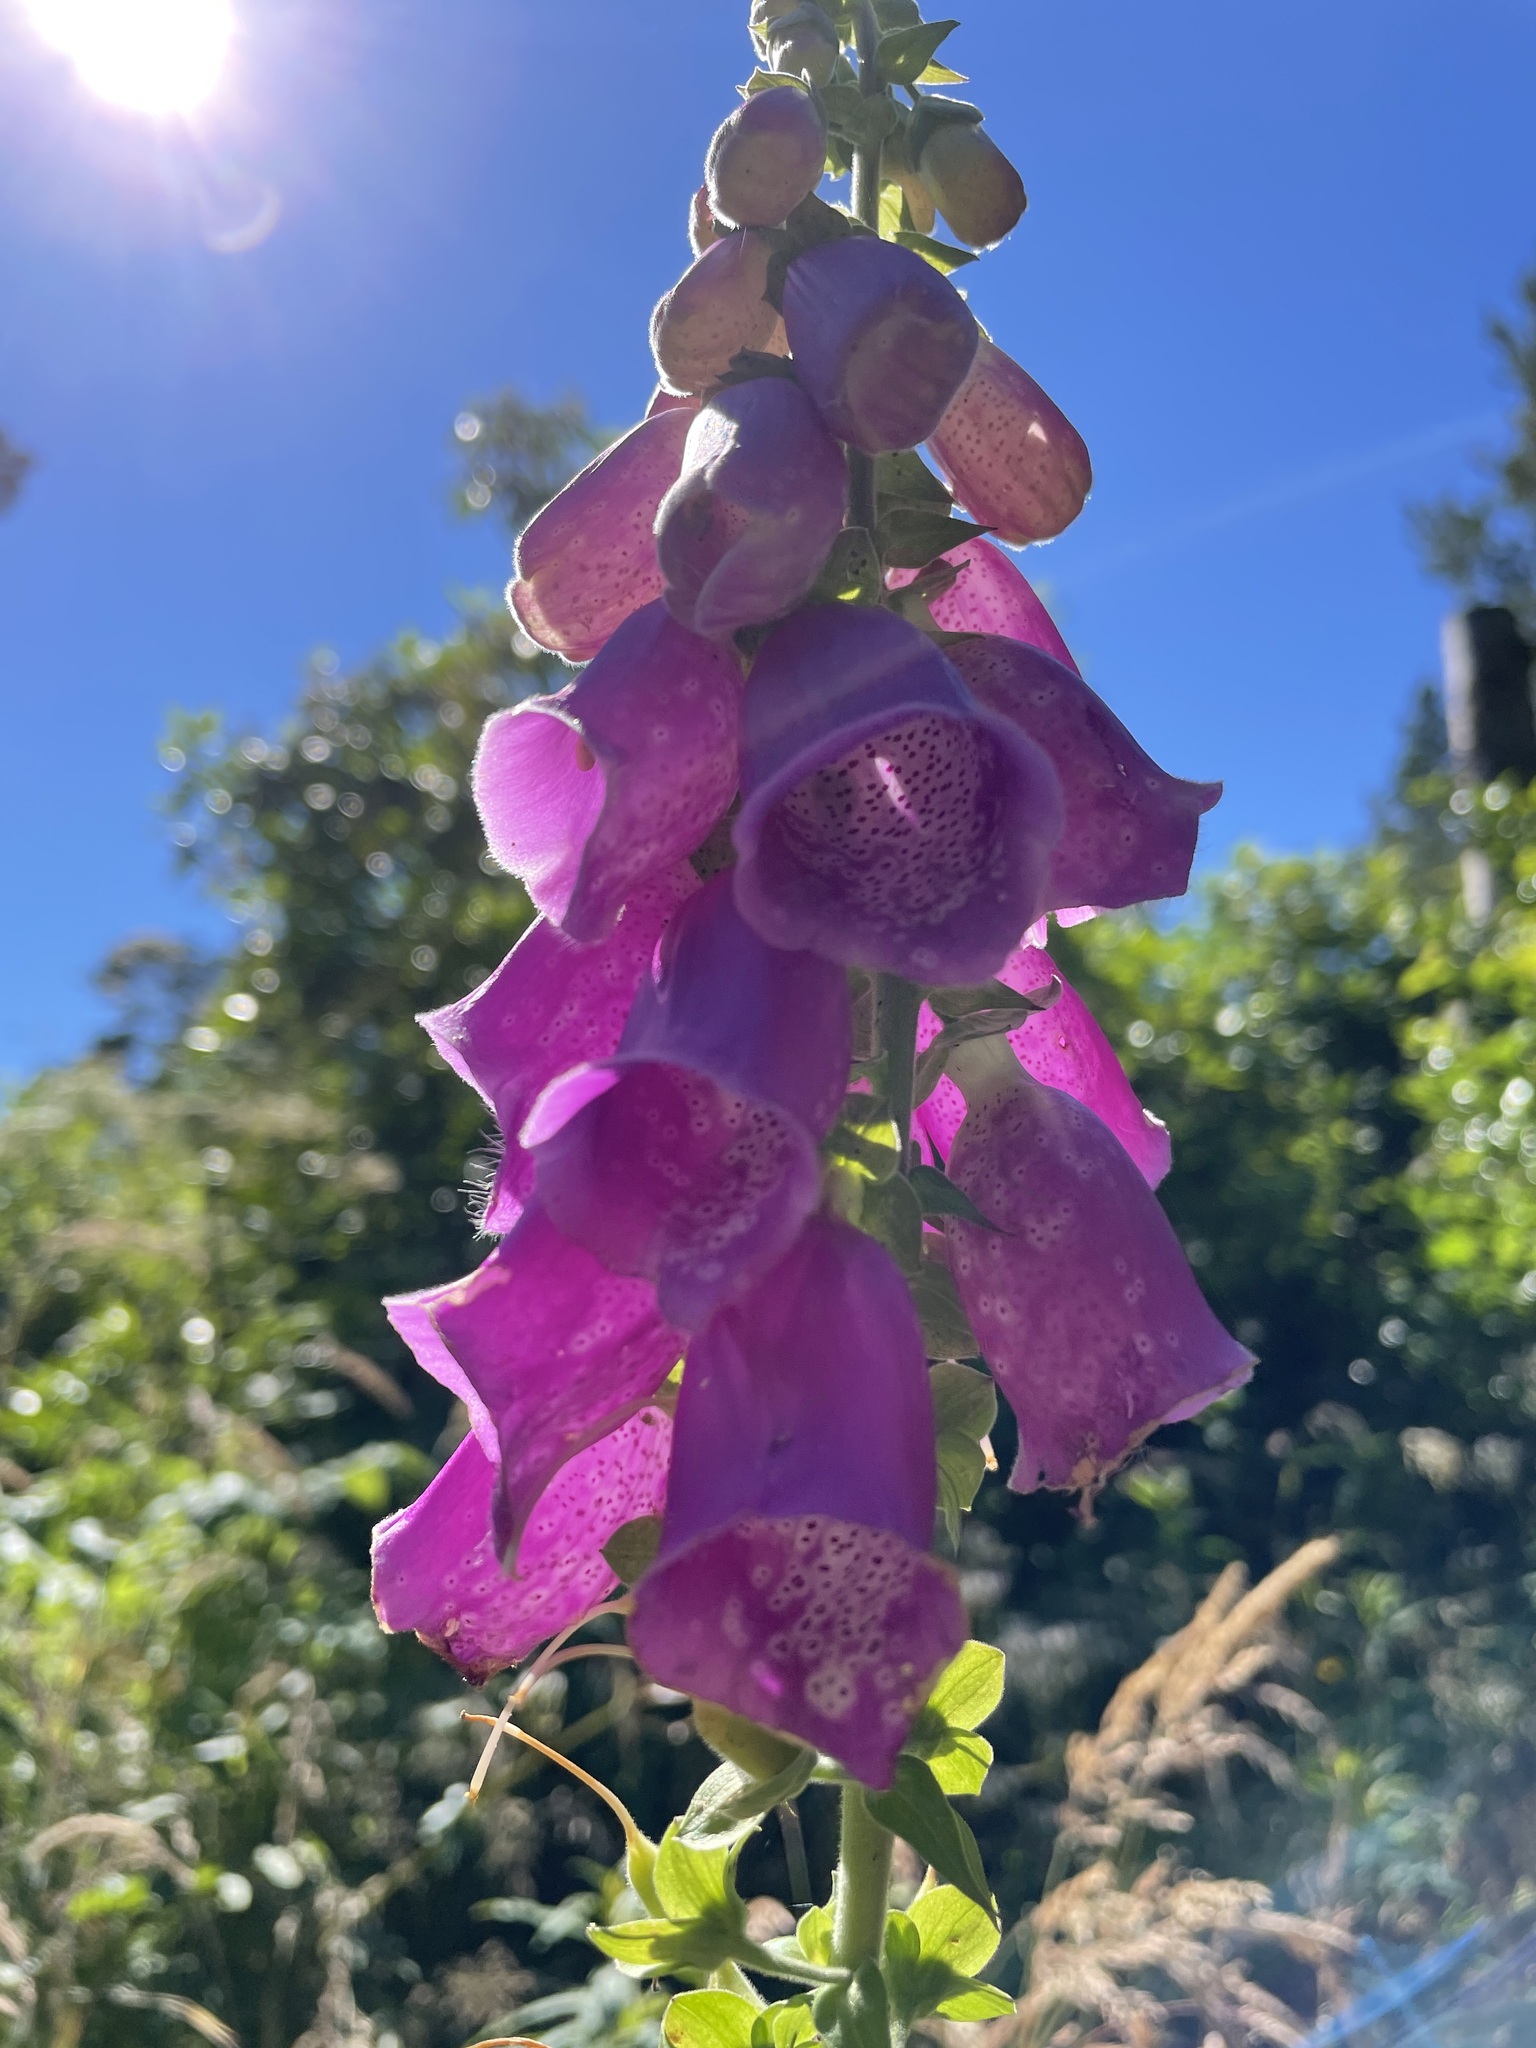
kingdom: Plantae
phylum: Tracheophyta
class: Magnoliopsida
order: Lamiales
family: Plantaginaceae
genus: Digitalis
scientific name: Digitalis purpurea
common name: Foxglove
